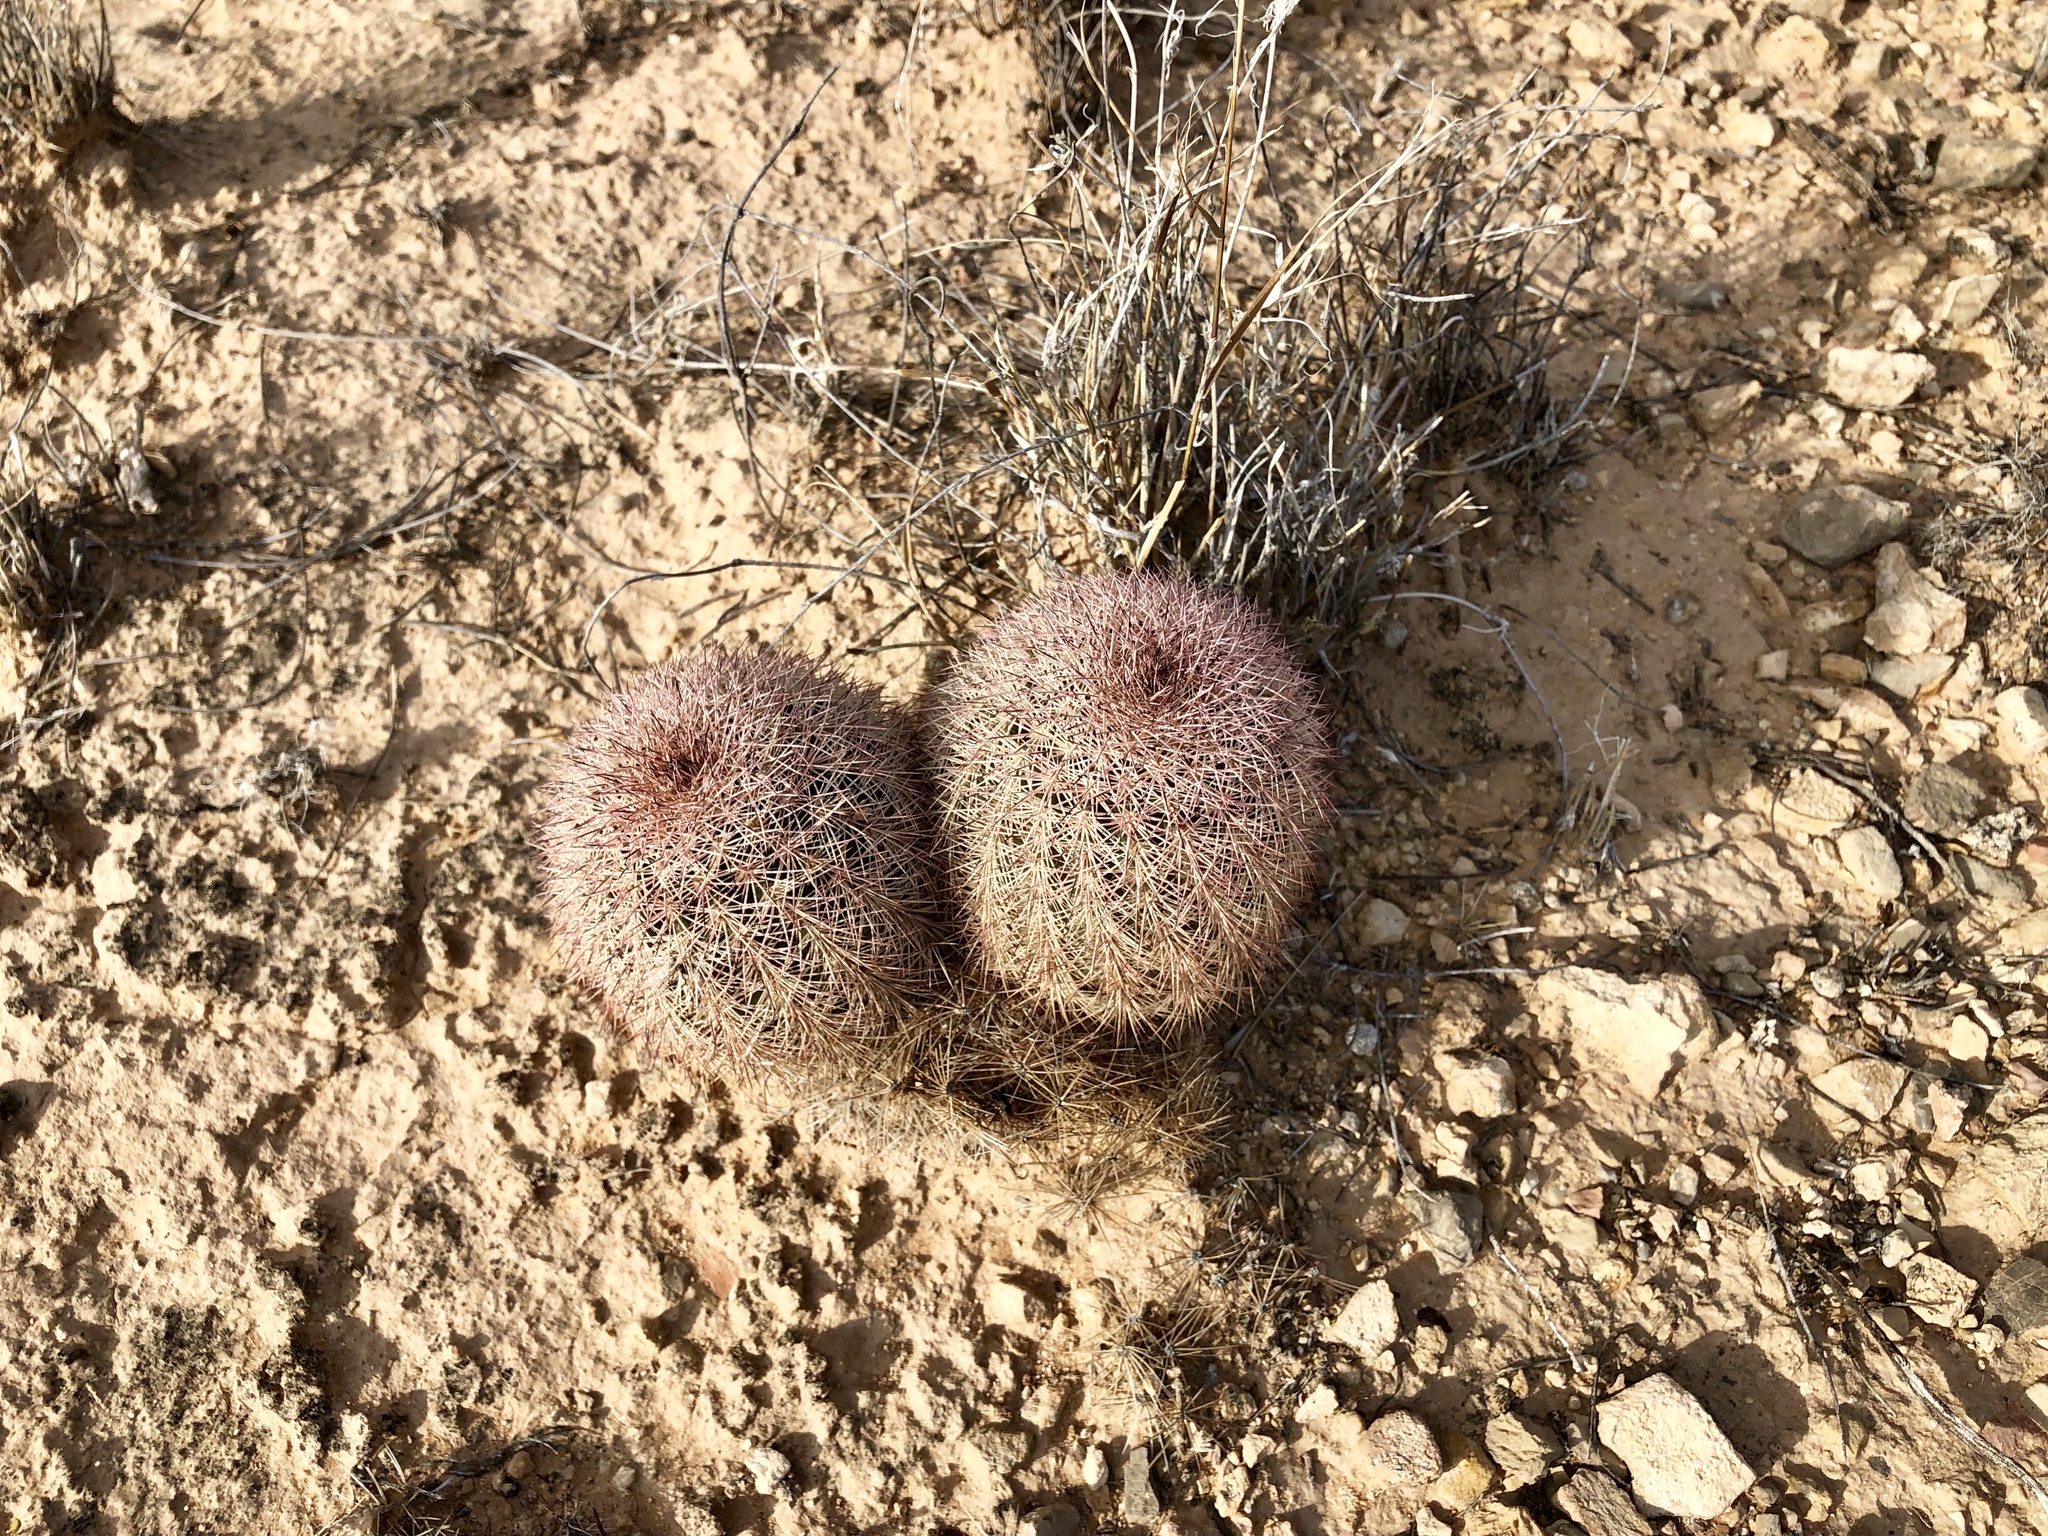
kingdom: Plantae
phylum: Tracheophyta
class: Magnoliopsida
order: Caryophyllales
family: Cactaceae
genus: Echinocereus
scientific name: Echinocereus dasyacanthus
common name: Spiny hedgehog cactus
